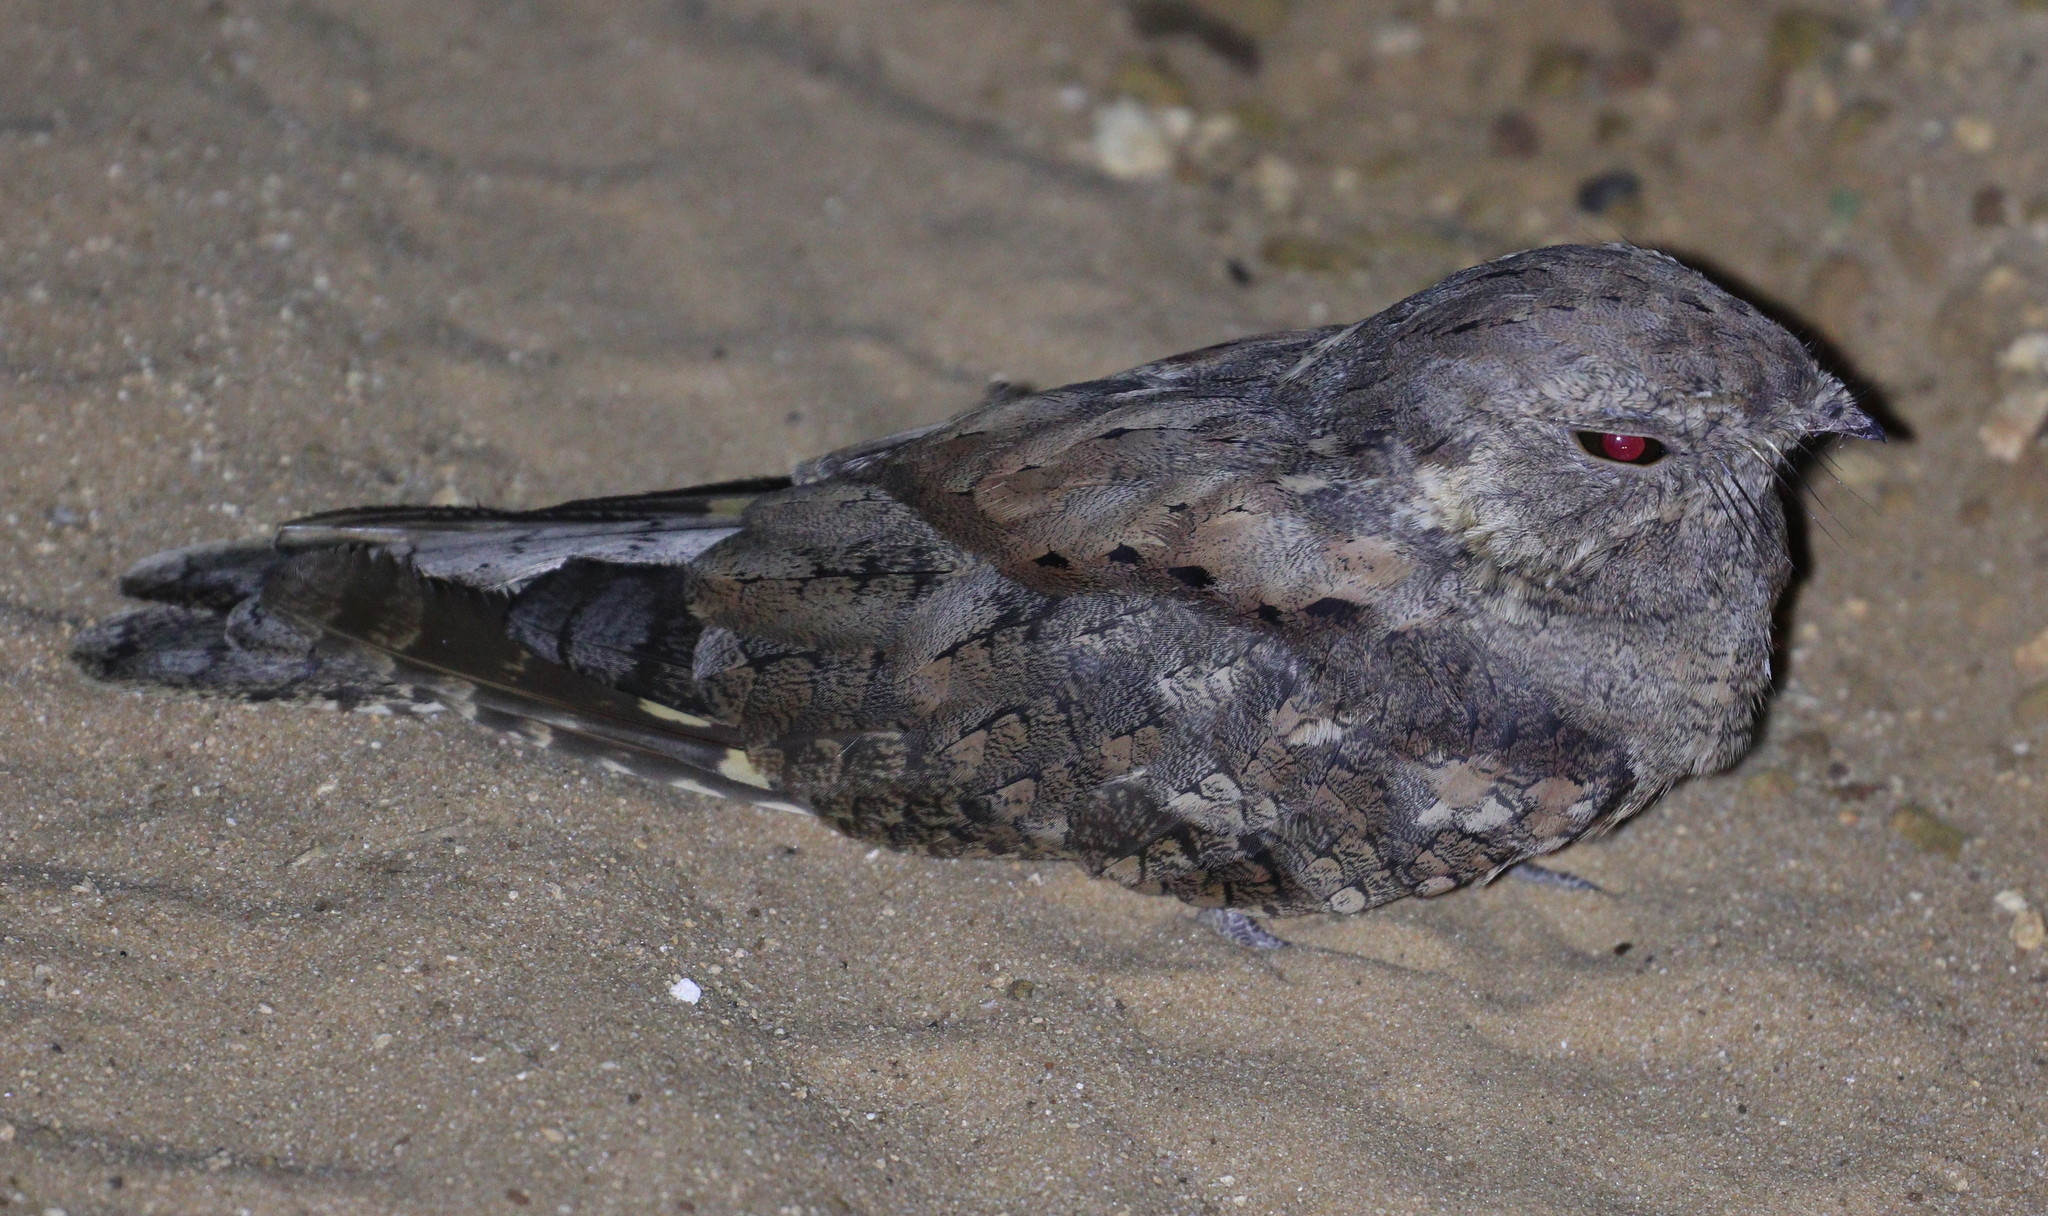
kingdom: Animalia
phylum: Chordata
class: Aves
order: Caprimulgiformes
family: Caprimulgidae
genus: Caprimulgus
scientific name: Caprimulgus inornatus
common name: Plain nightjar
